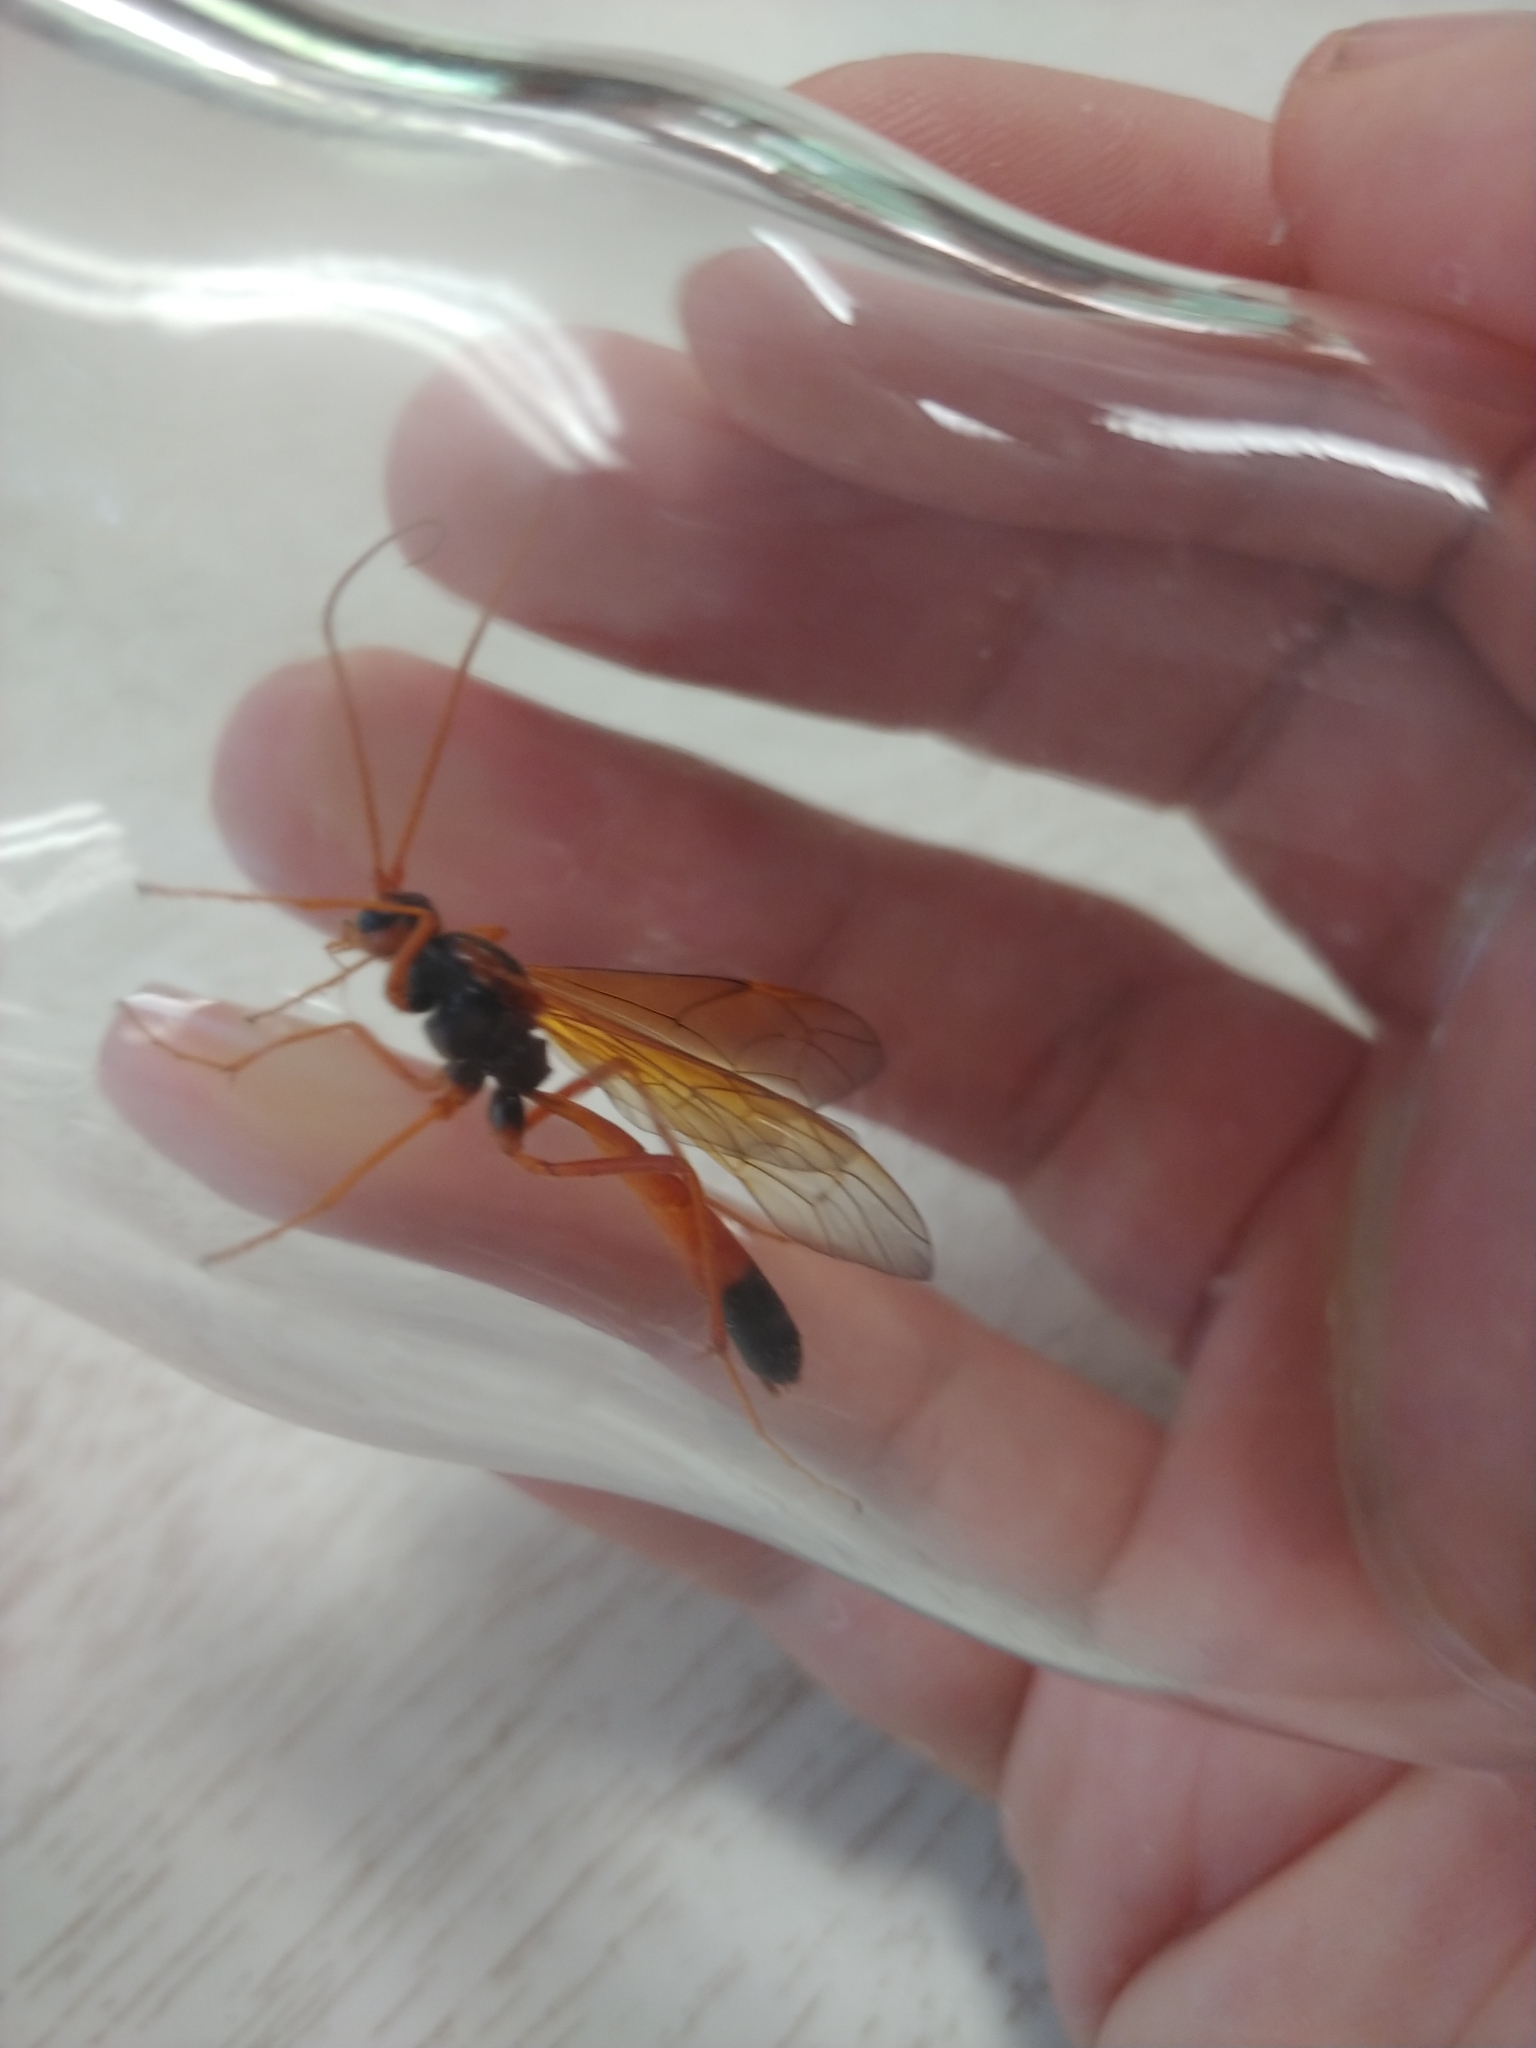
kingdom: Animalia
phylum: Arthropoda
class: Insecta
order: Hymenoptera
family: Ichneumonidae
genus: Opheltes
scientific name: Opheltes glaucopterus
